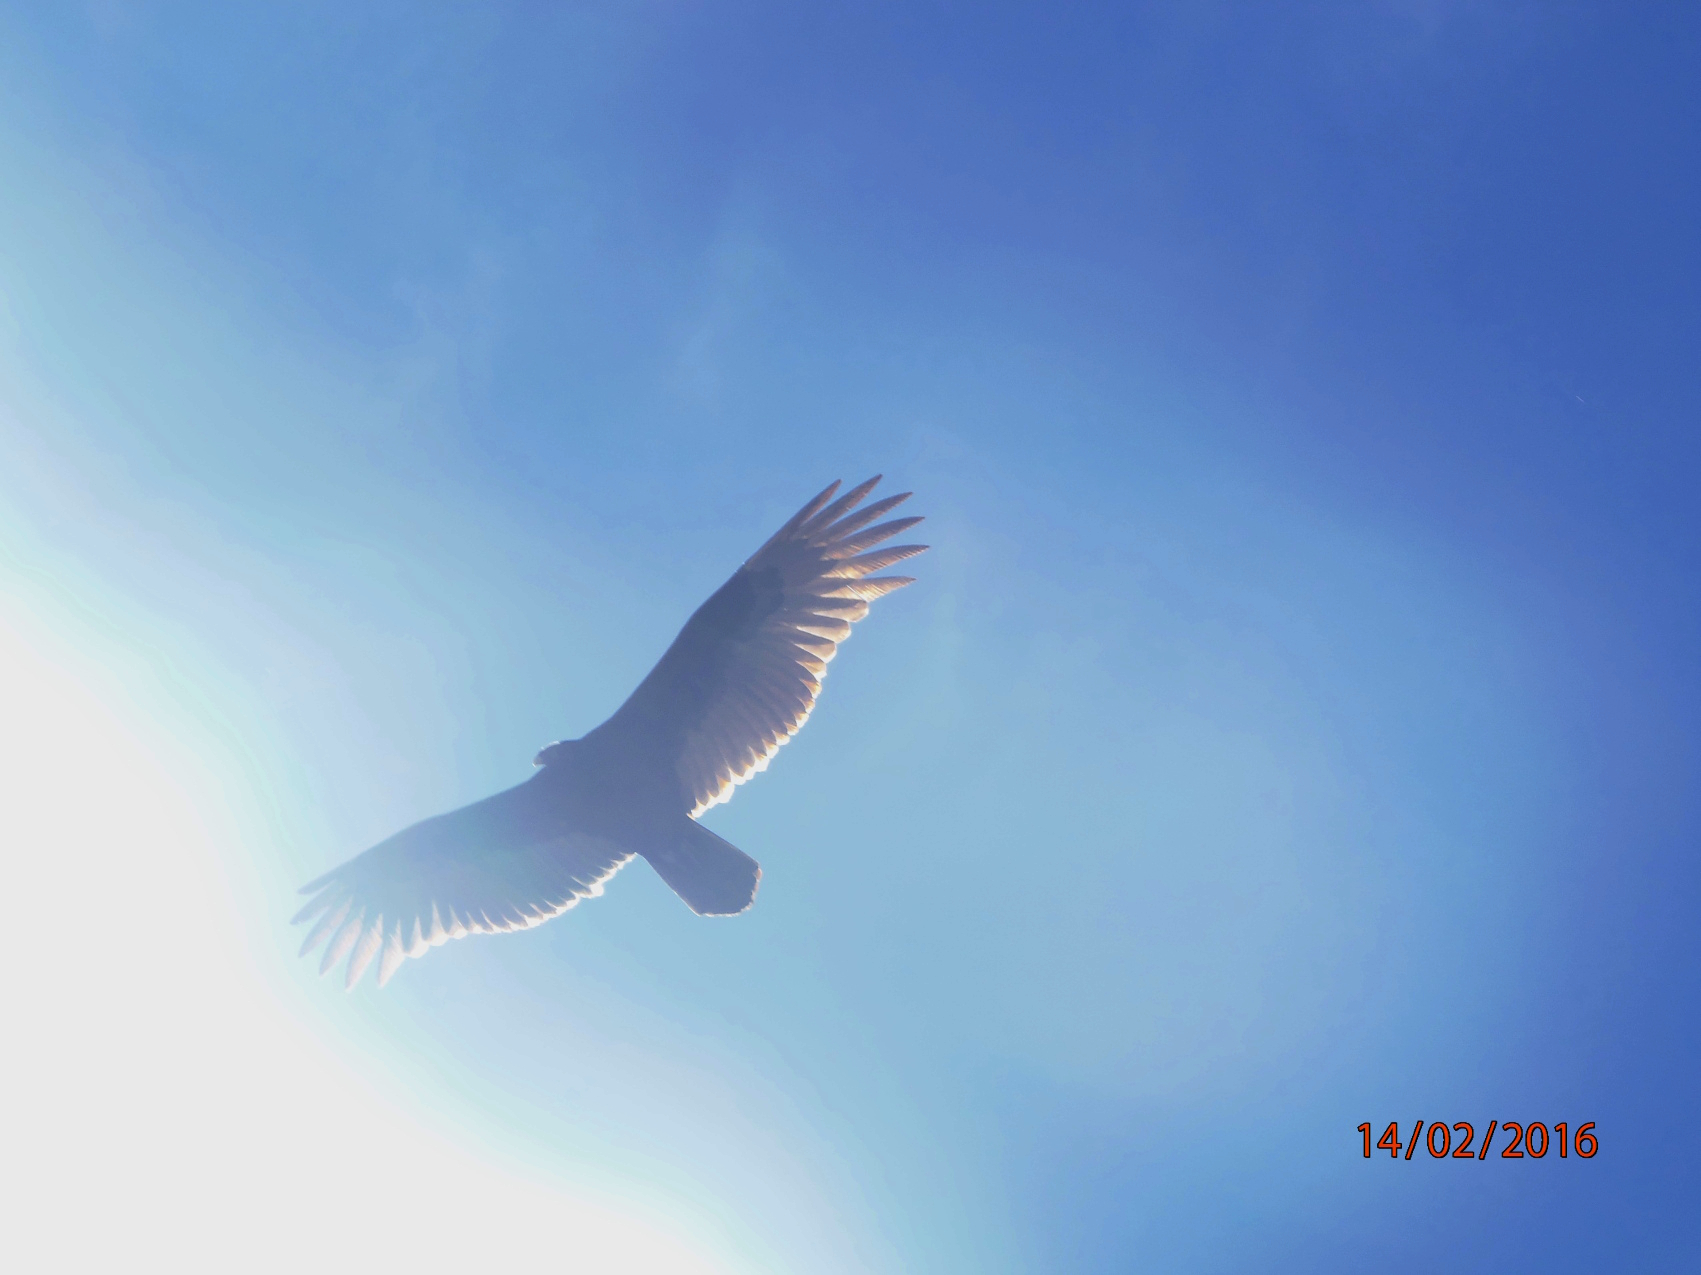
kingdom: Animalia
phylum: Chordata
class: Aves
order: Accipitriformes
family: Cathartidae
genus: Cathartes
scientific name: Cathartes aura
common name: Turkey vulture
